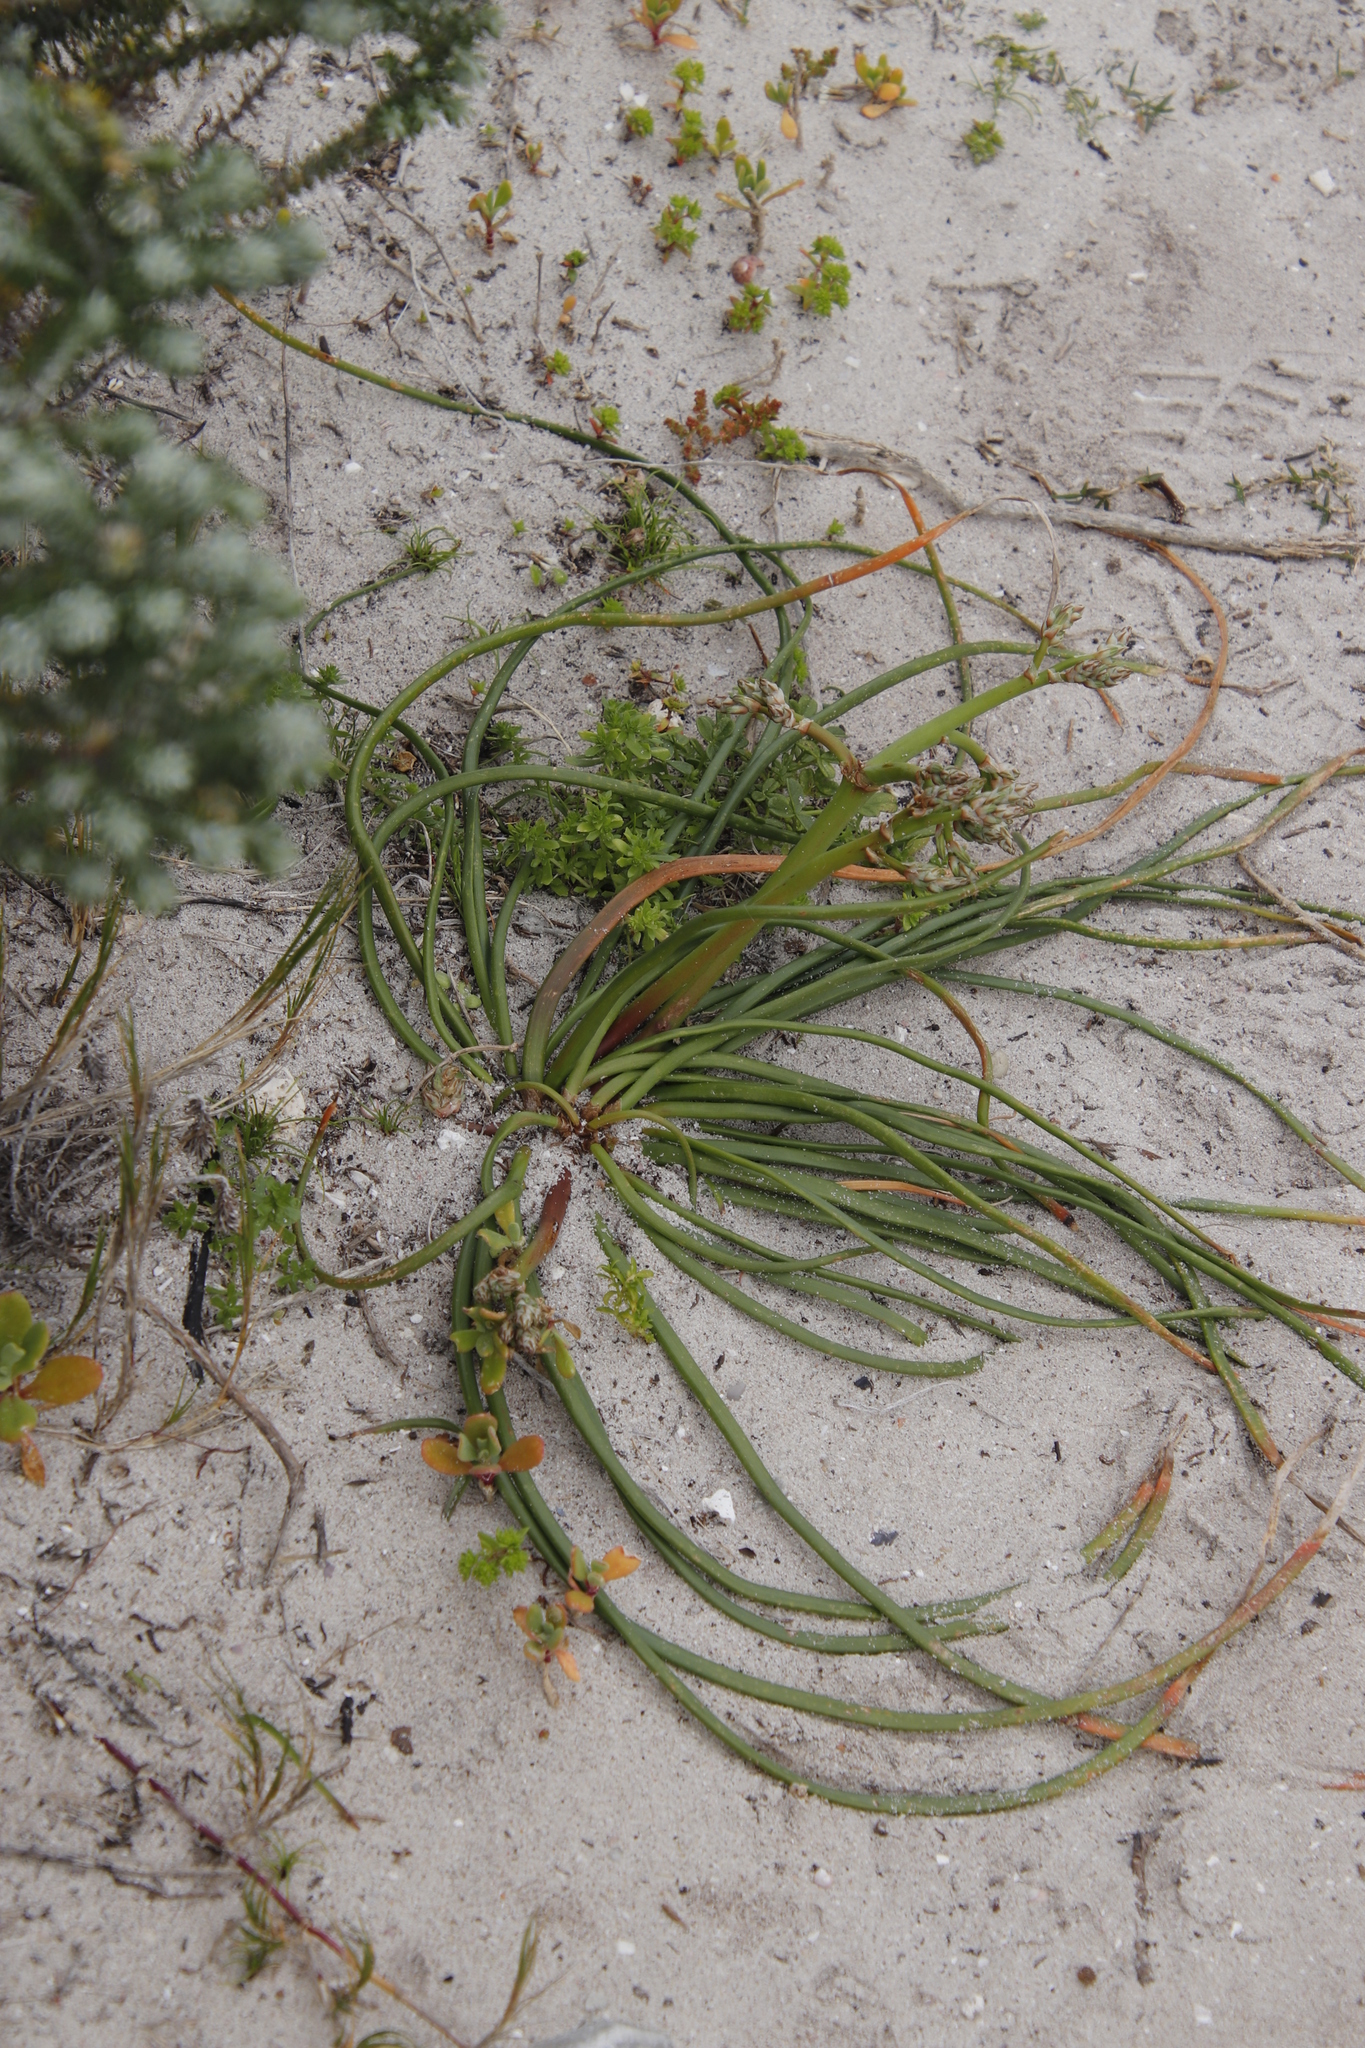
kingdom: Plantae
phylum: Tracheophyta
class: Liliopsida
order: Asparagales
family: Asphodelaceae
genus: Trachyandra
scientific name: Trachyandra divaricata
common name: Dune onionweed
